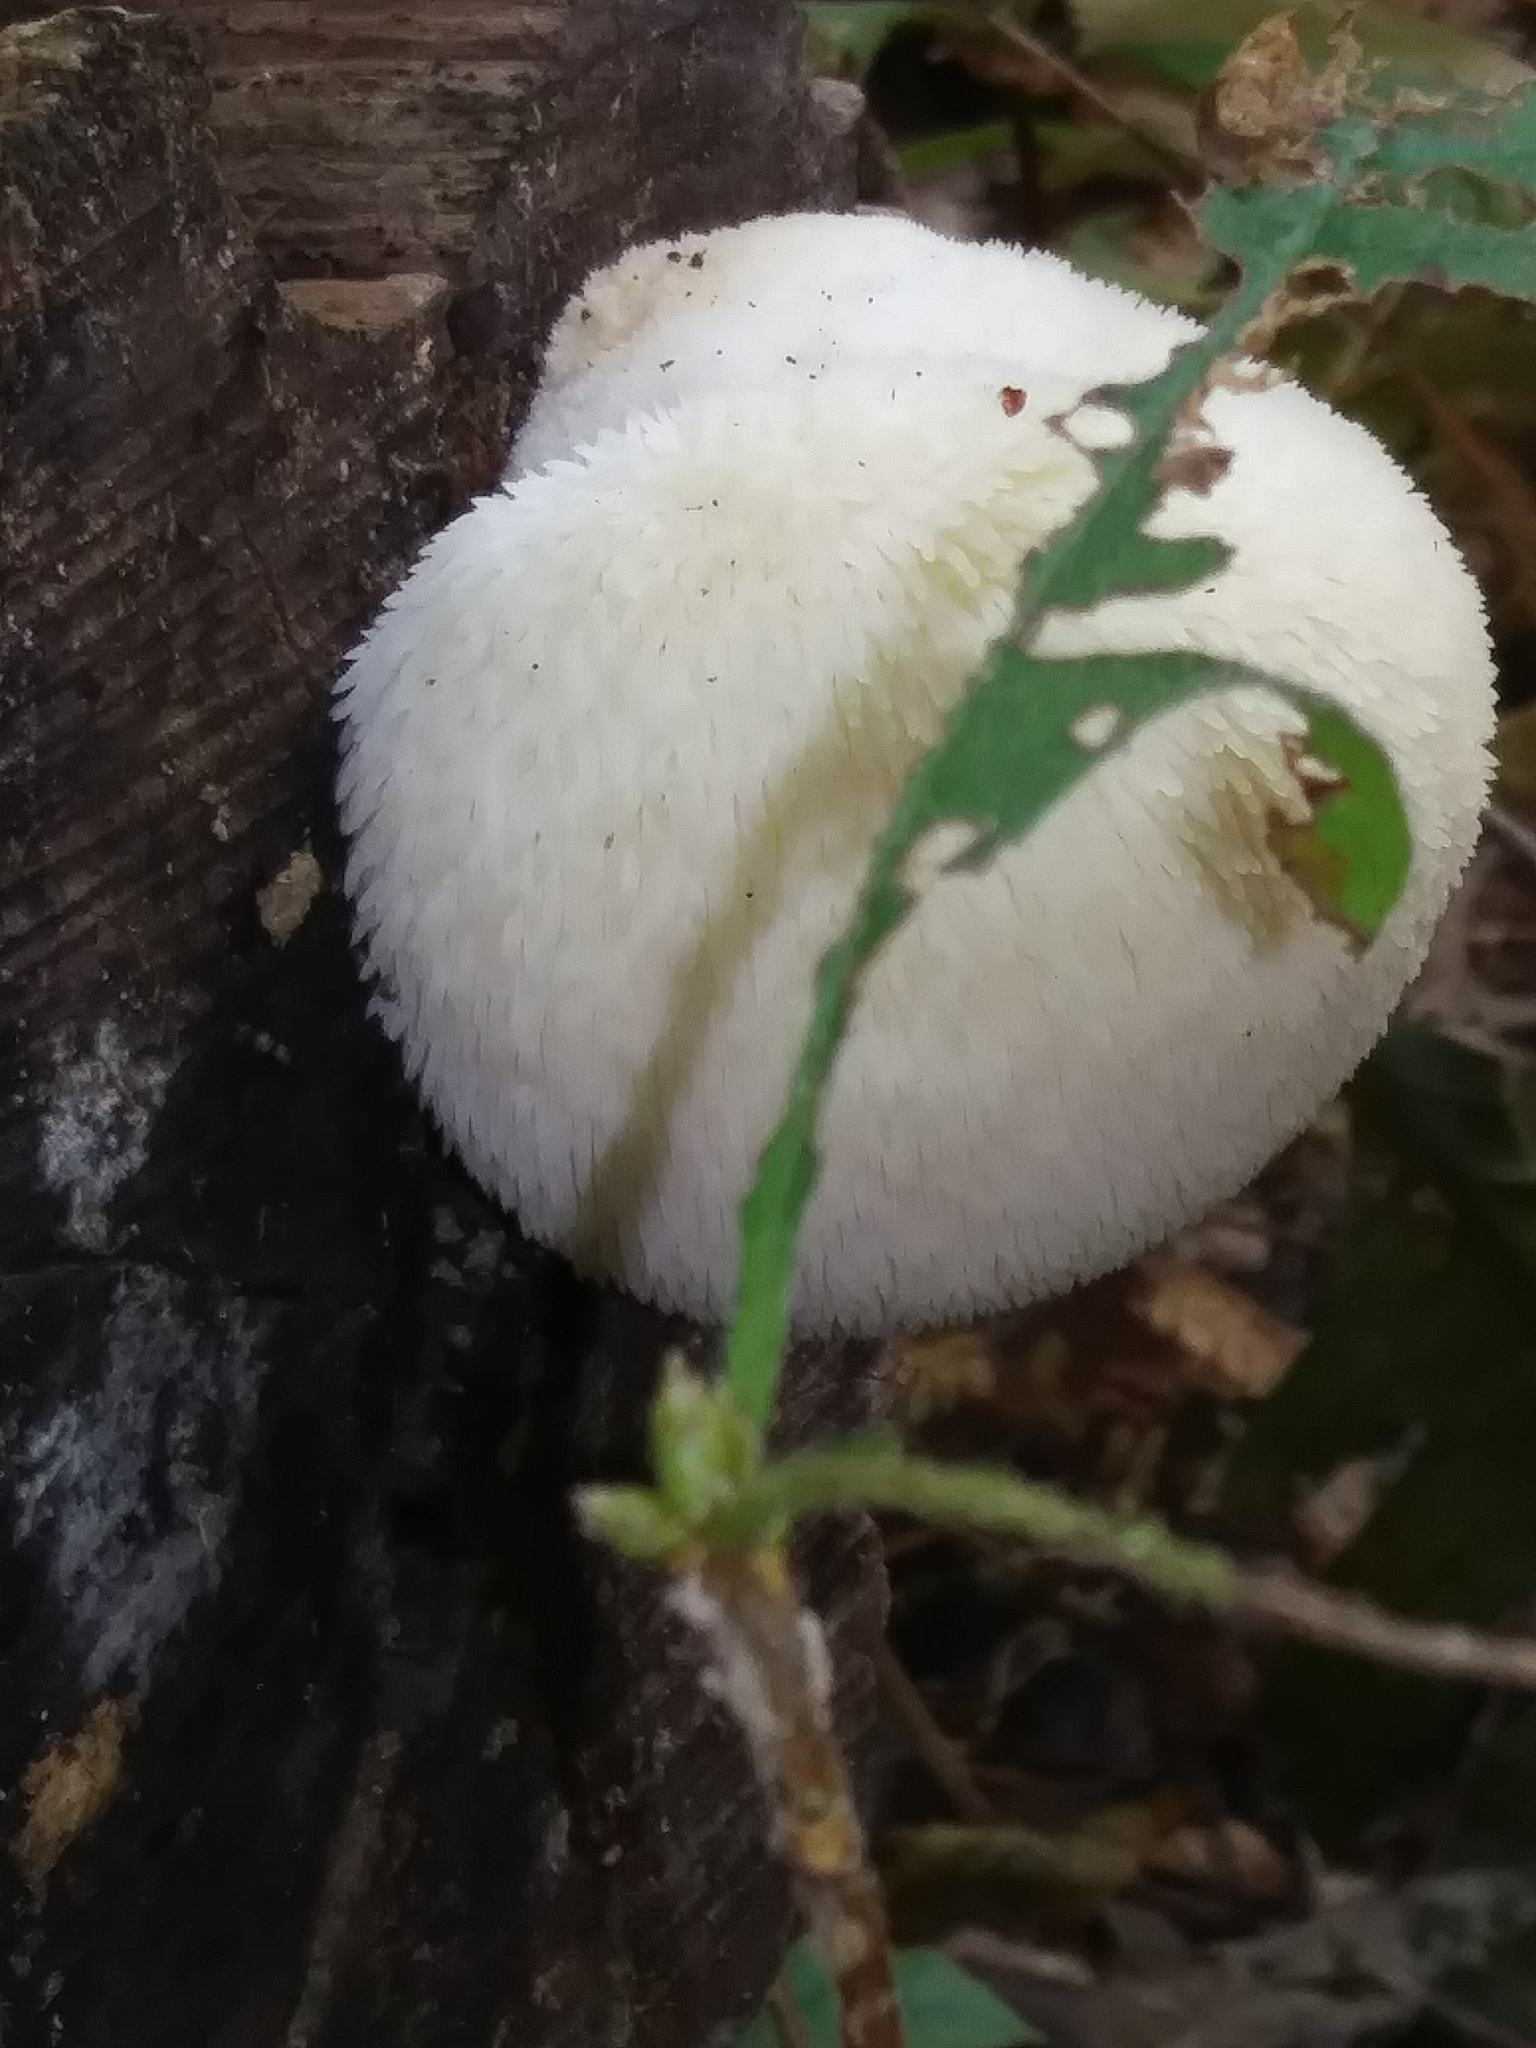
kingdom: Fungi
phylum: Basidiomycota
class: Agaricomycetes
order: Russulales
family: Hericiaceae
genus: Hericium
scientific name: Hericium erinaceus
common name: Bearded tooth
